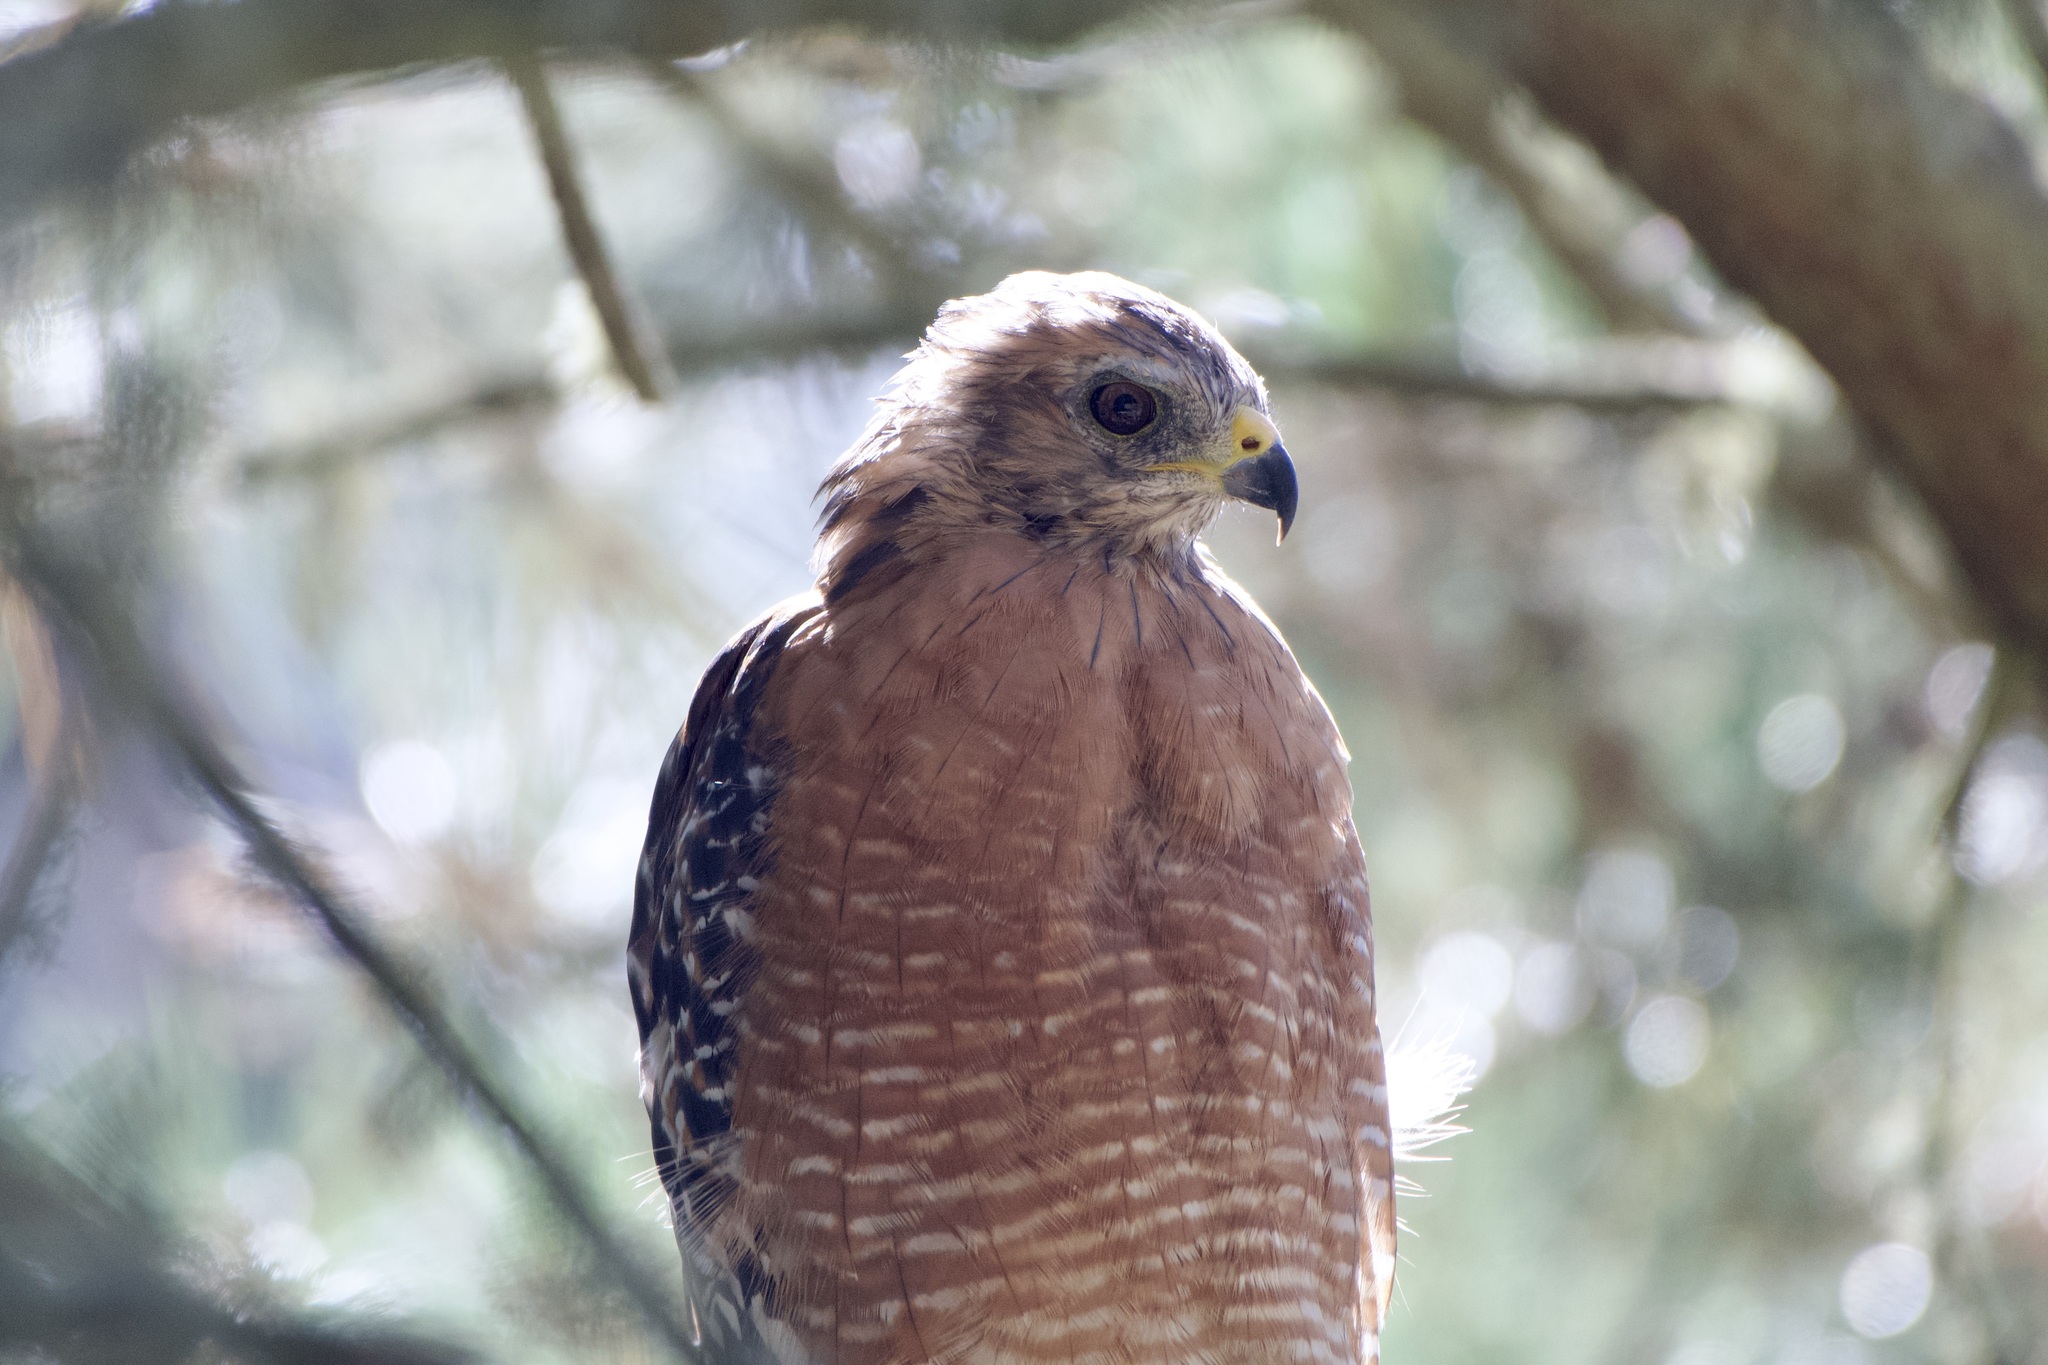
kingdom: Animalia
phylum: Chordata
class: Aves
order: Accipitriformes
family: Accipitridae
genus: Buteo
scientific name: Buteo lineatus
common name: Red-shouldered hawk
